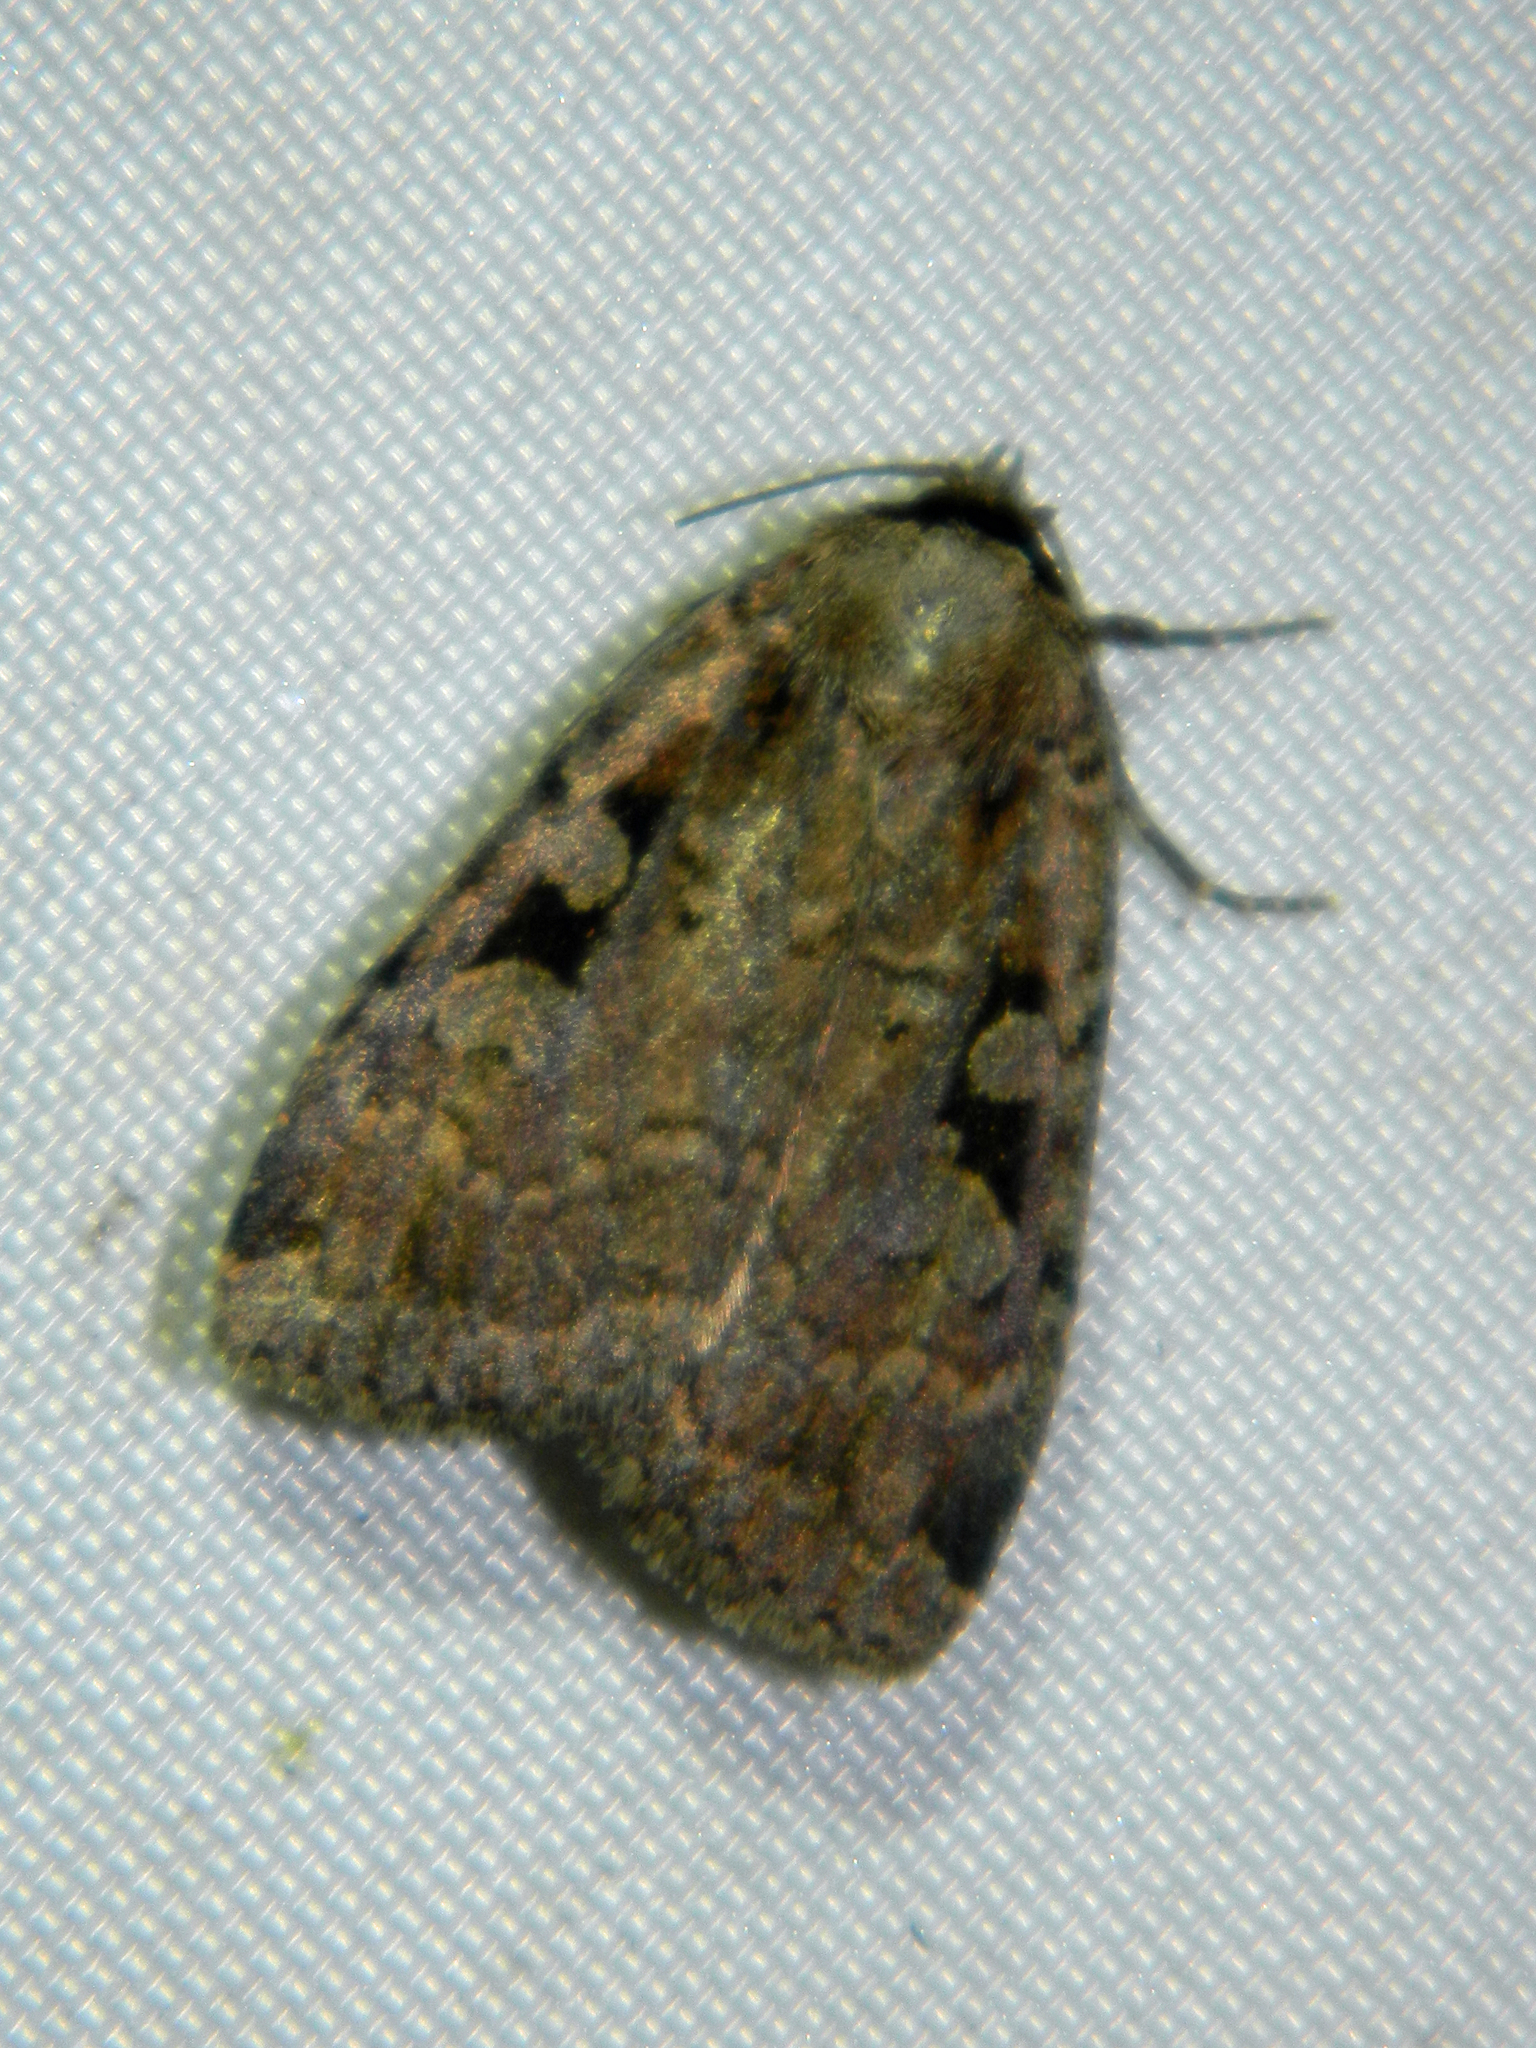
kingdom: Animalia
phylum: Arthropoda
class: Insecta
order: Lepidoptera
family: Noctuidae
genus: Eueretagrotis
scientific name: Eueretagrotis perattentus
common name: Two-spot dart moth
